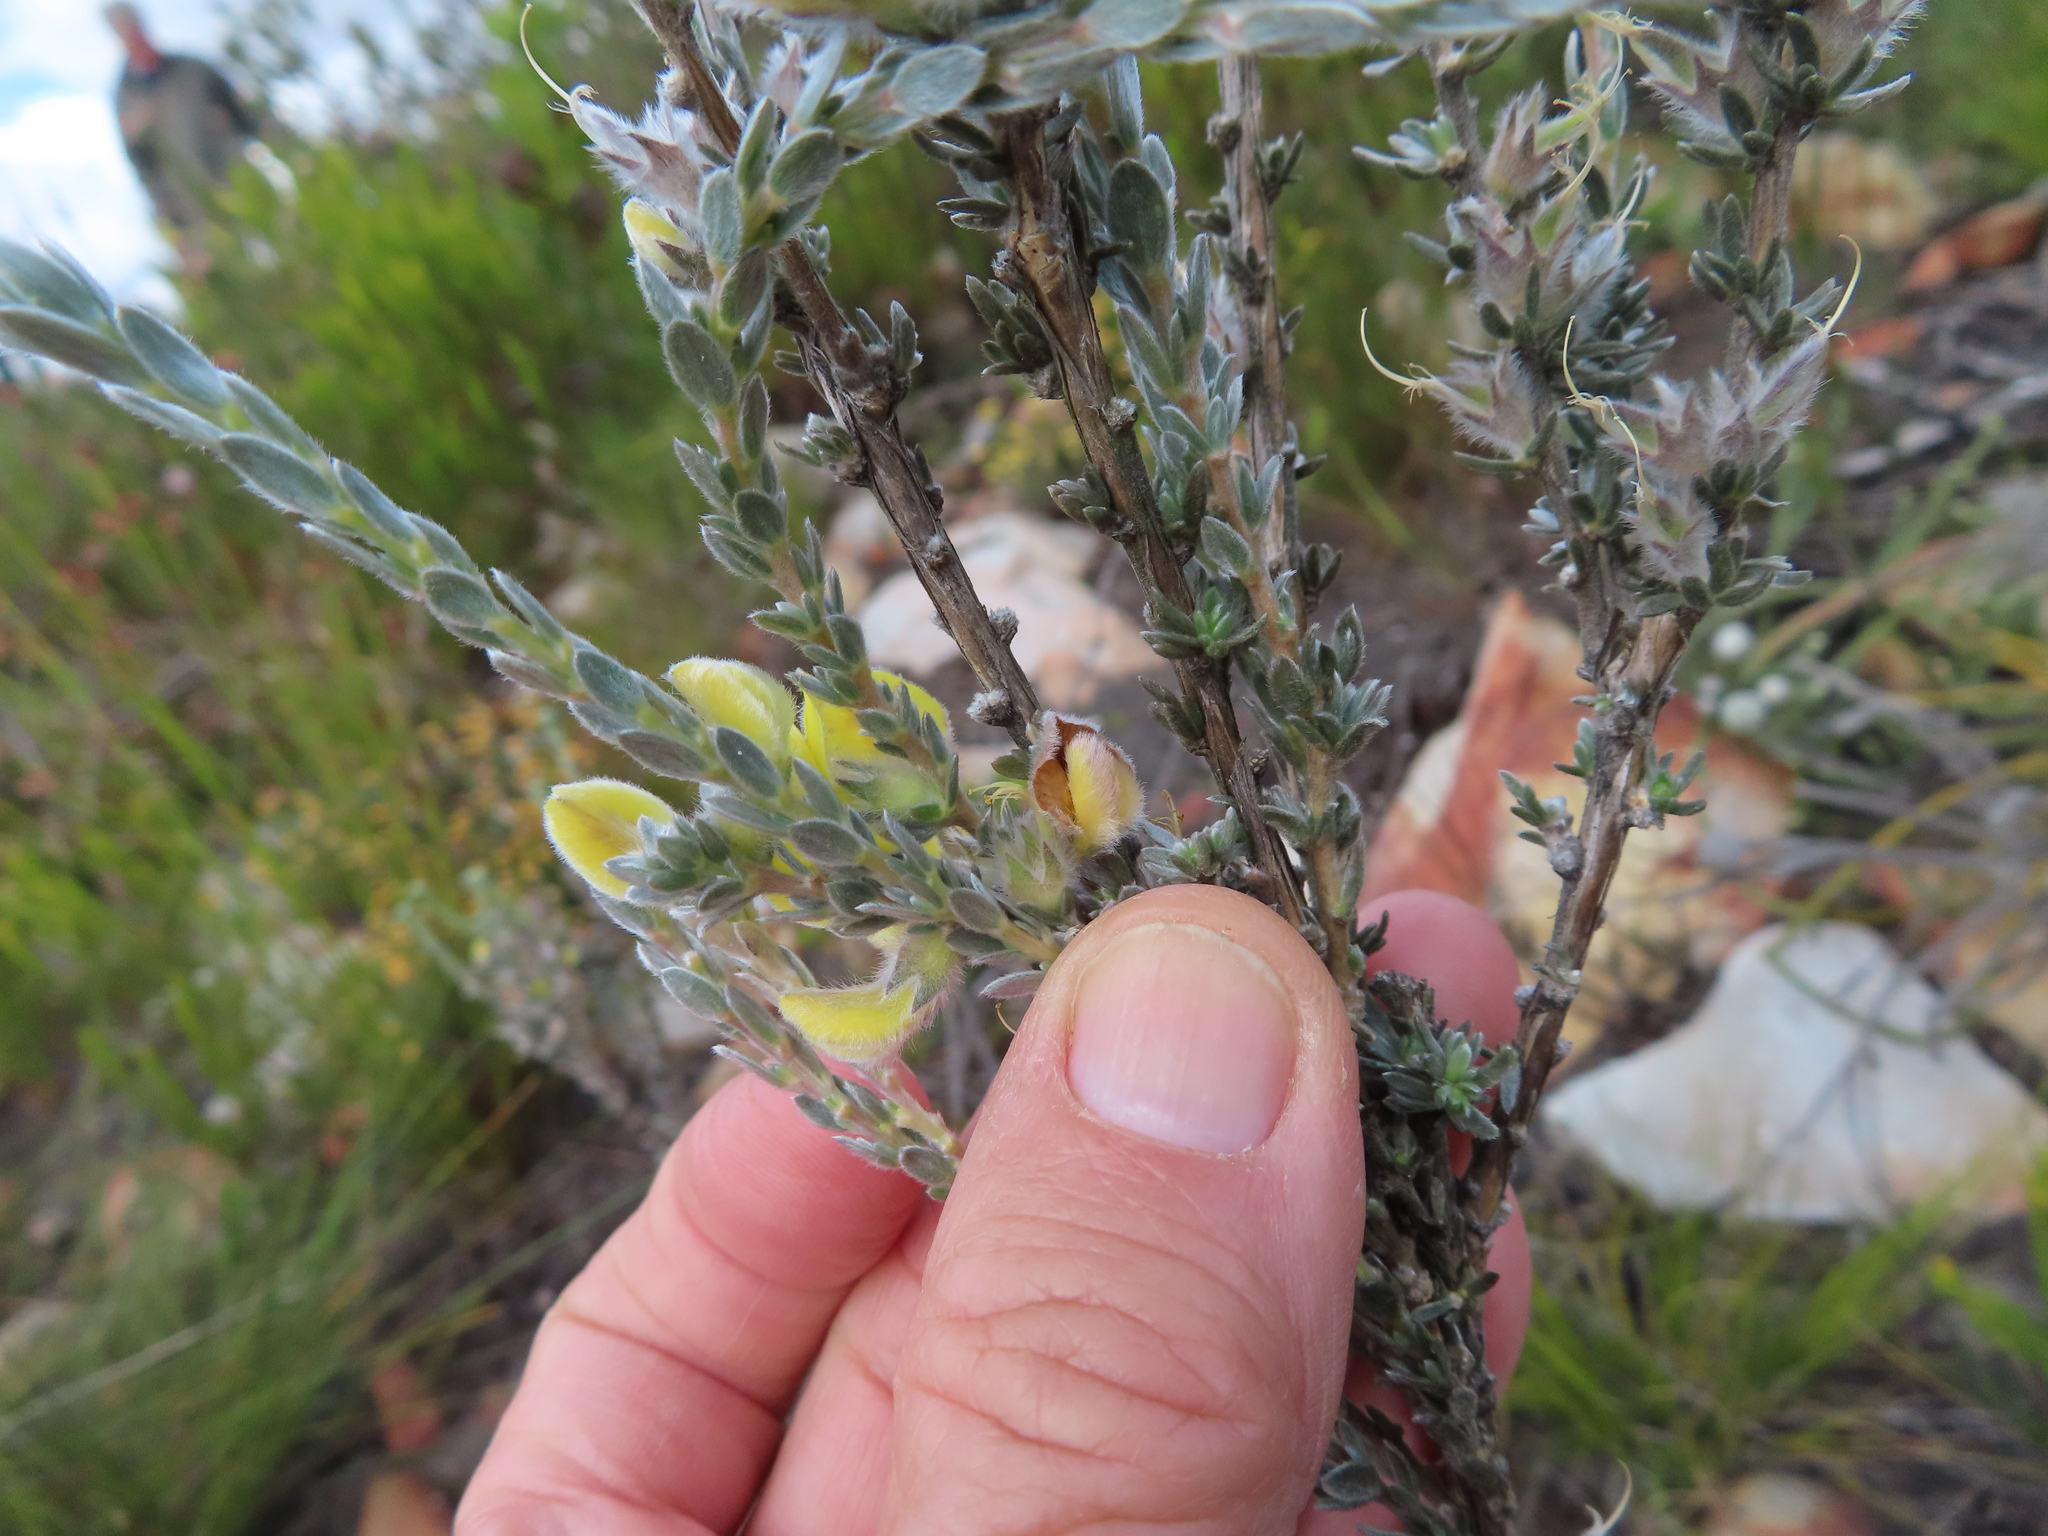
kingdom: Plantae
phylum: Tracheophyta
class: Magnoliopsida
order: Fabales
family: Fabaceae
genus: Aspalathus
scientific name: Aspalathus caledonensis
